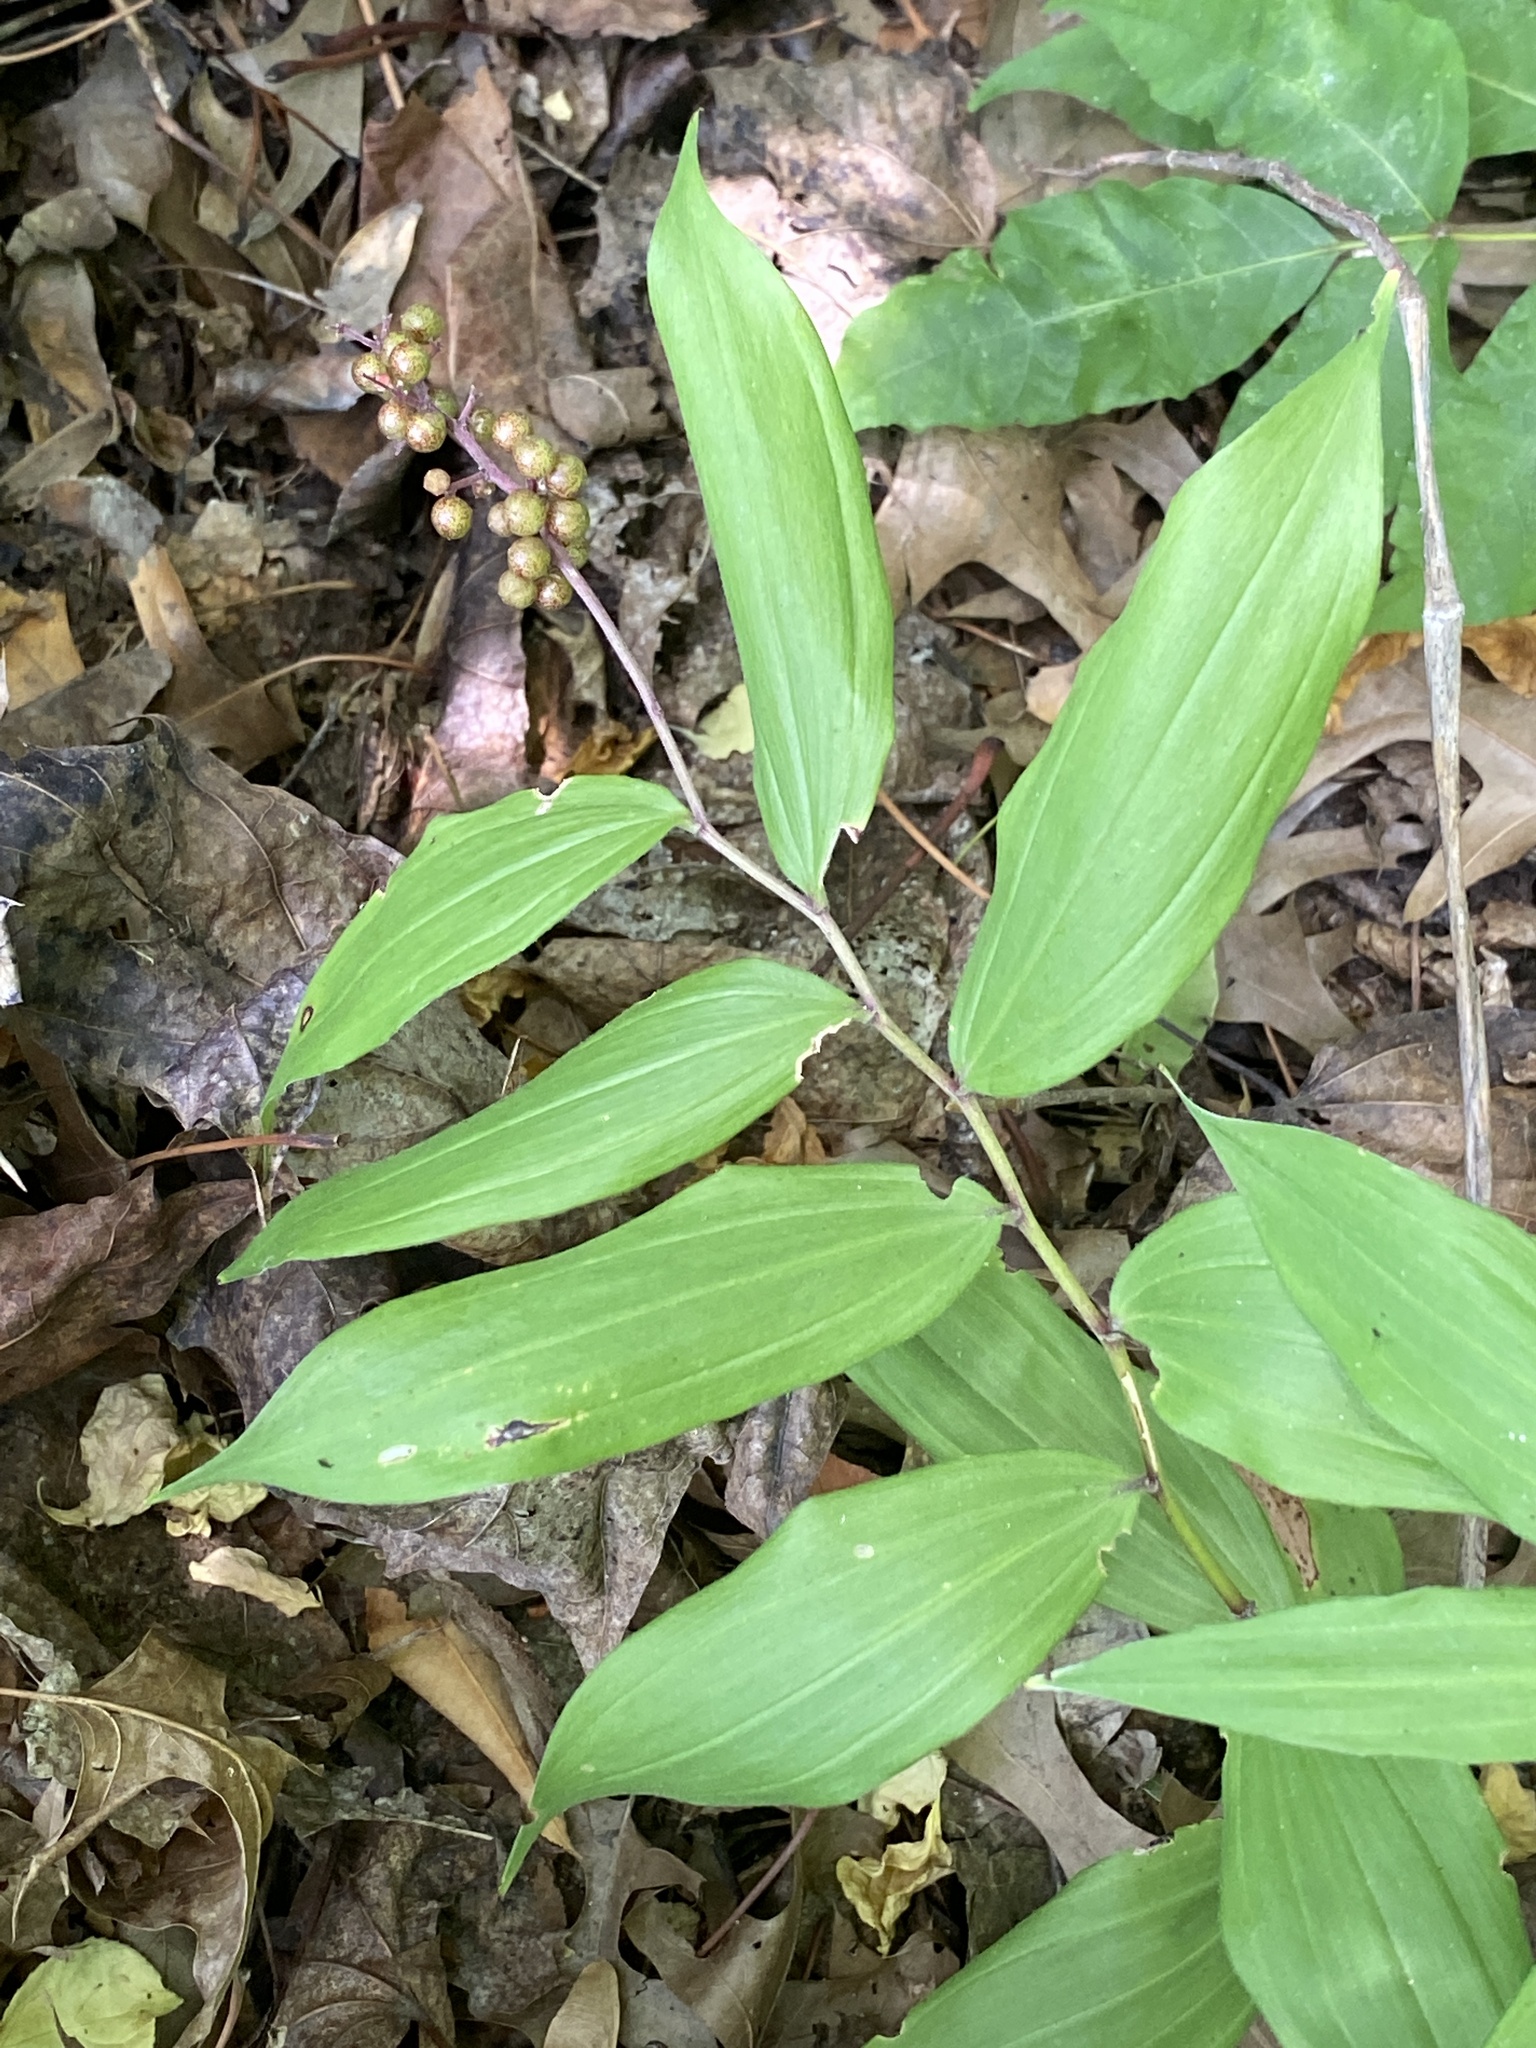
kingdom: Plantae
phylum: Tracheophyta
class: Liliopsida
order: Asparagales
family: Asparagaceae
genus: Maianthemum
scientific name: Maianthemum racemosum
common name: False spikenard
